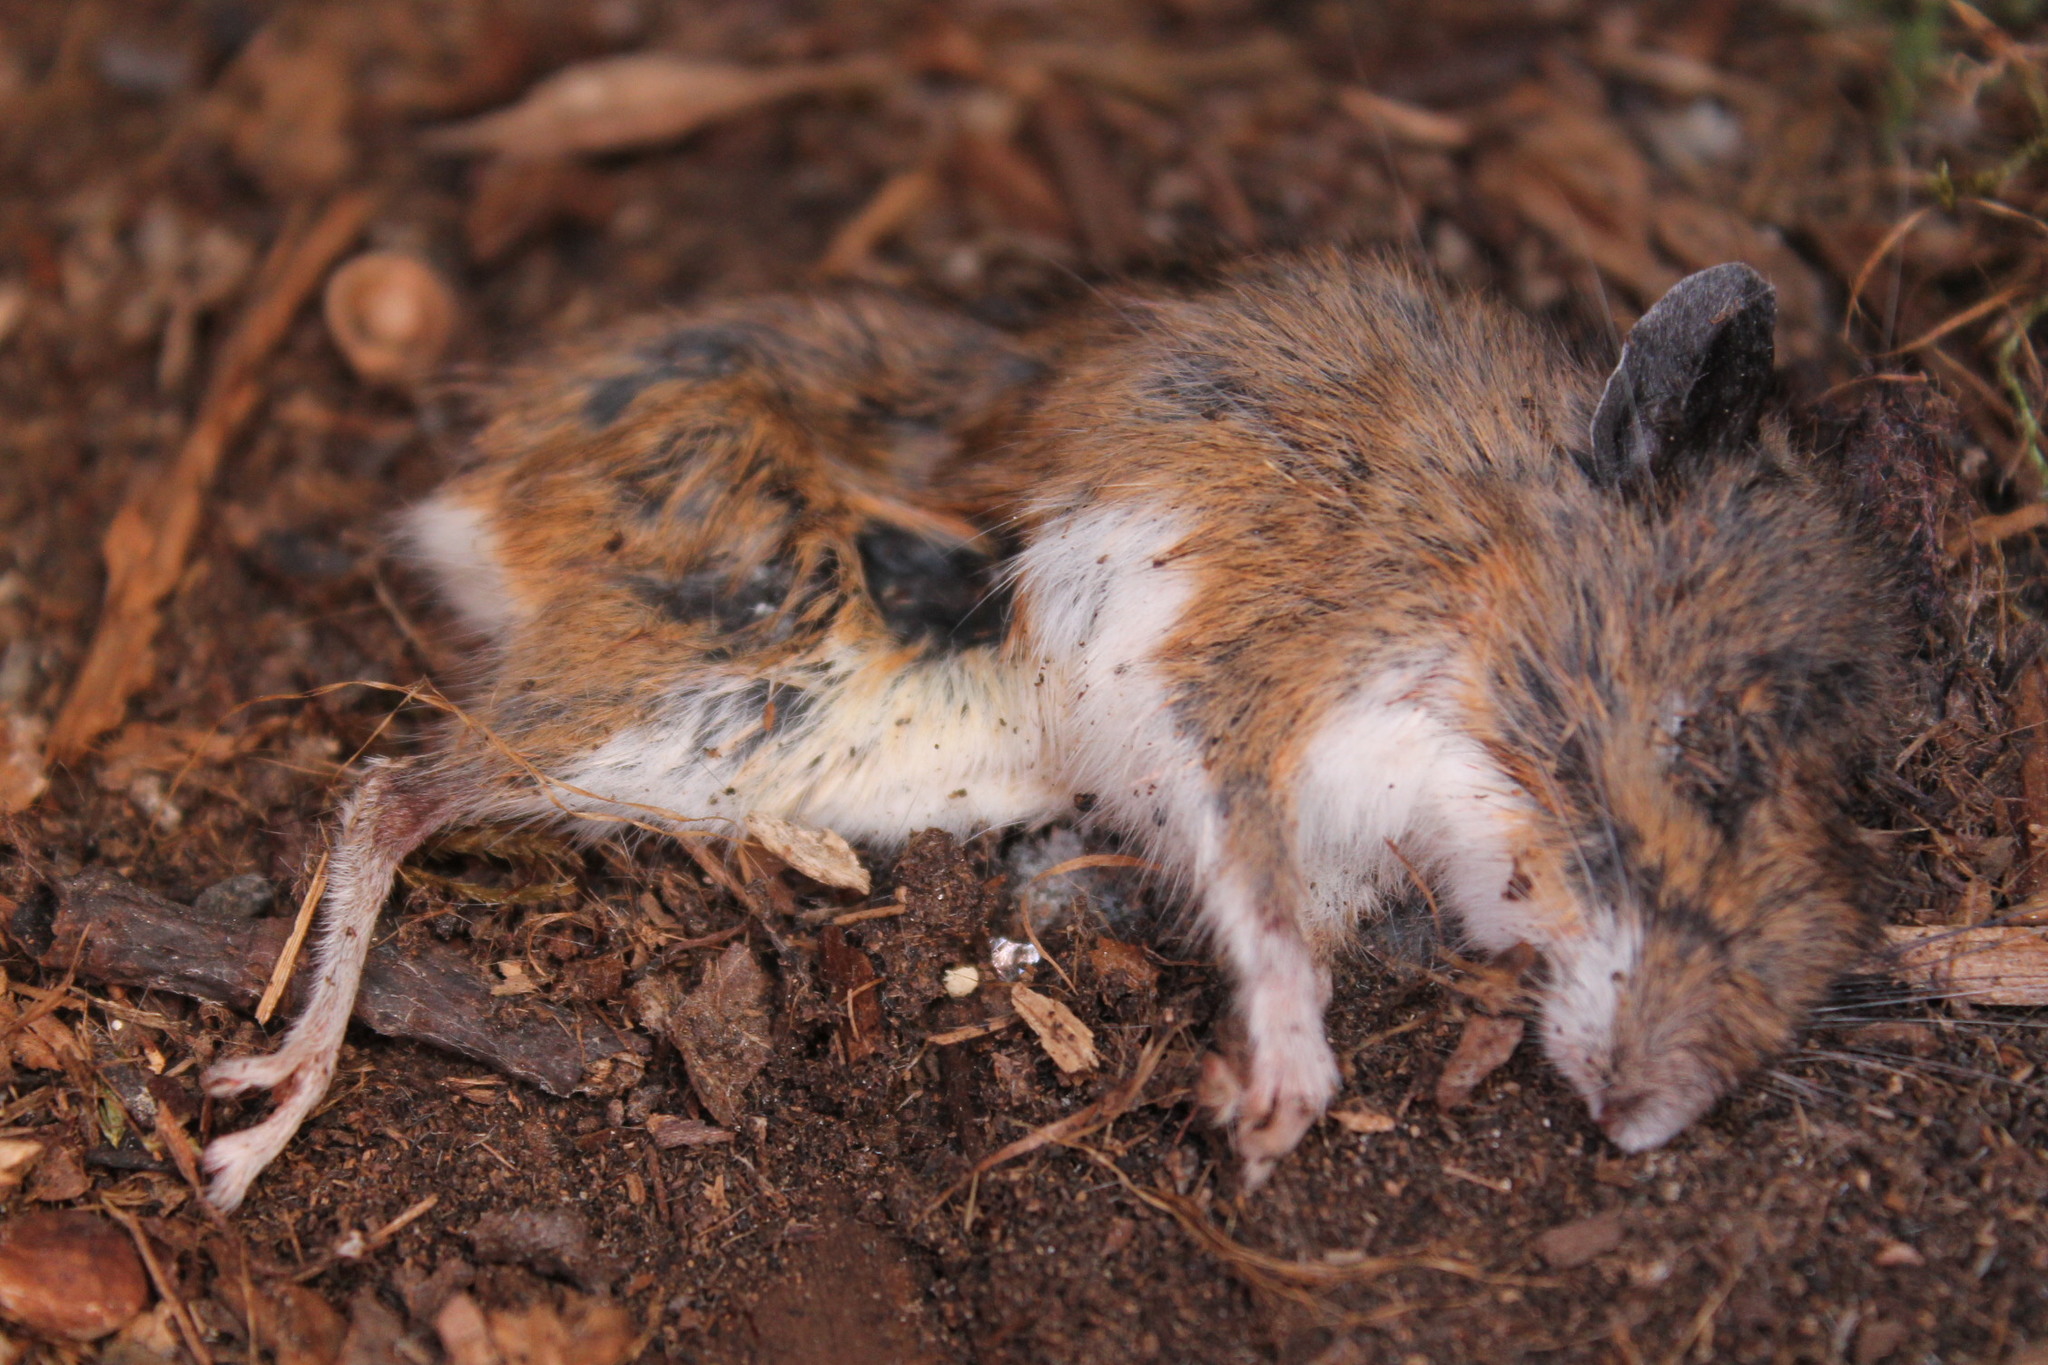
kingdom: Animalia
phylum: Chordata
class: Mammalia
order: Rodentia
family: Cricetidae
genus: Peromyscus
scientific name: Peromyscus leucopus
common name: White-footed deermouse
